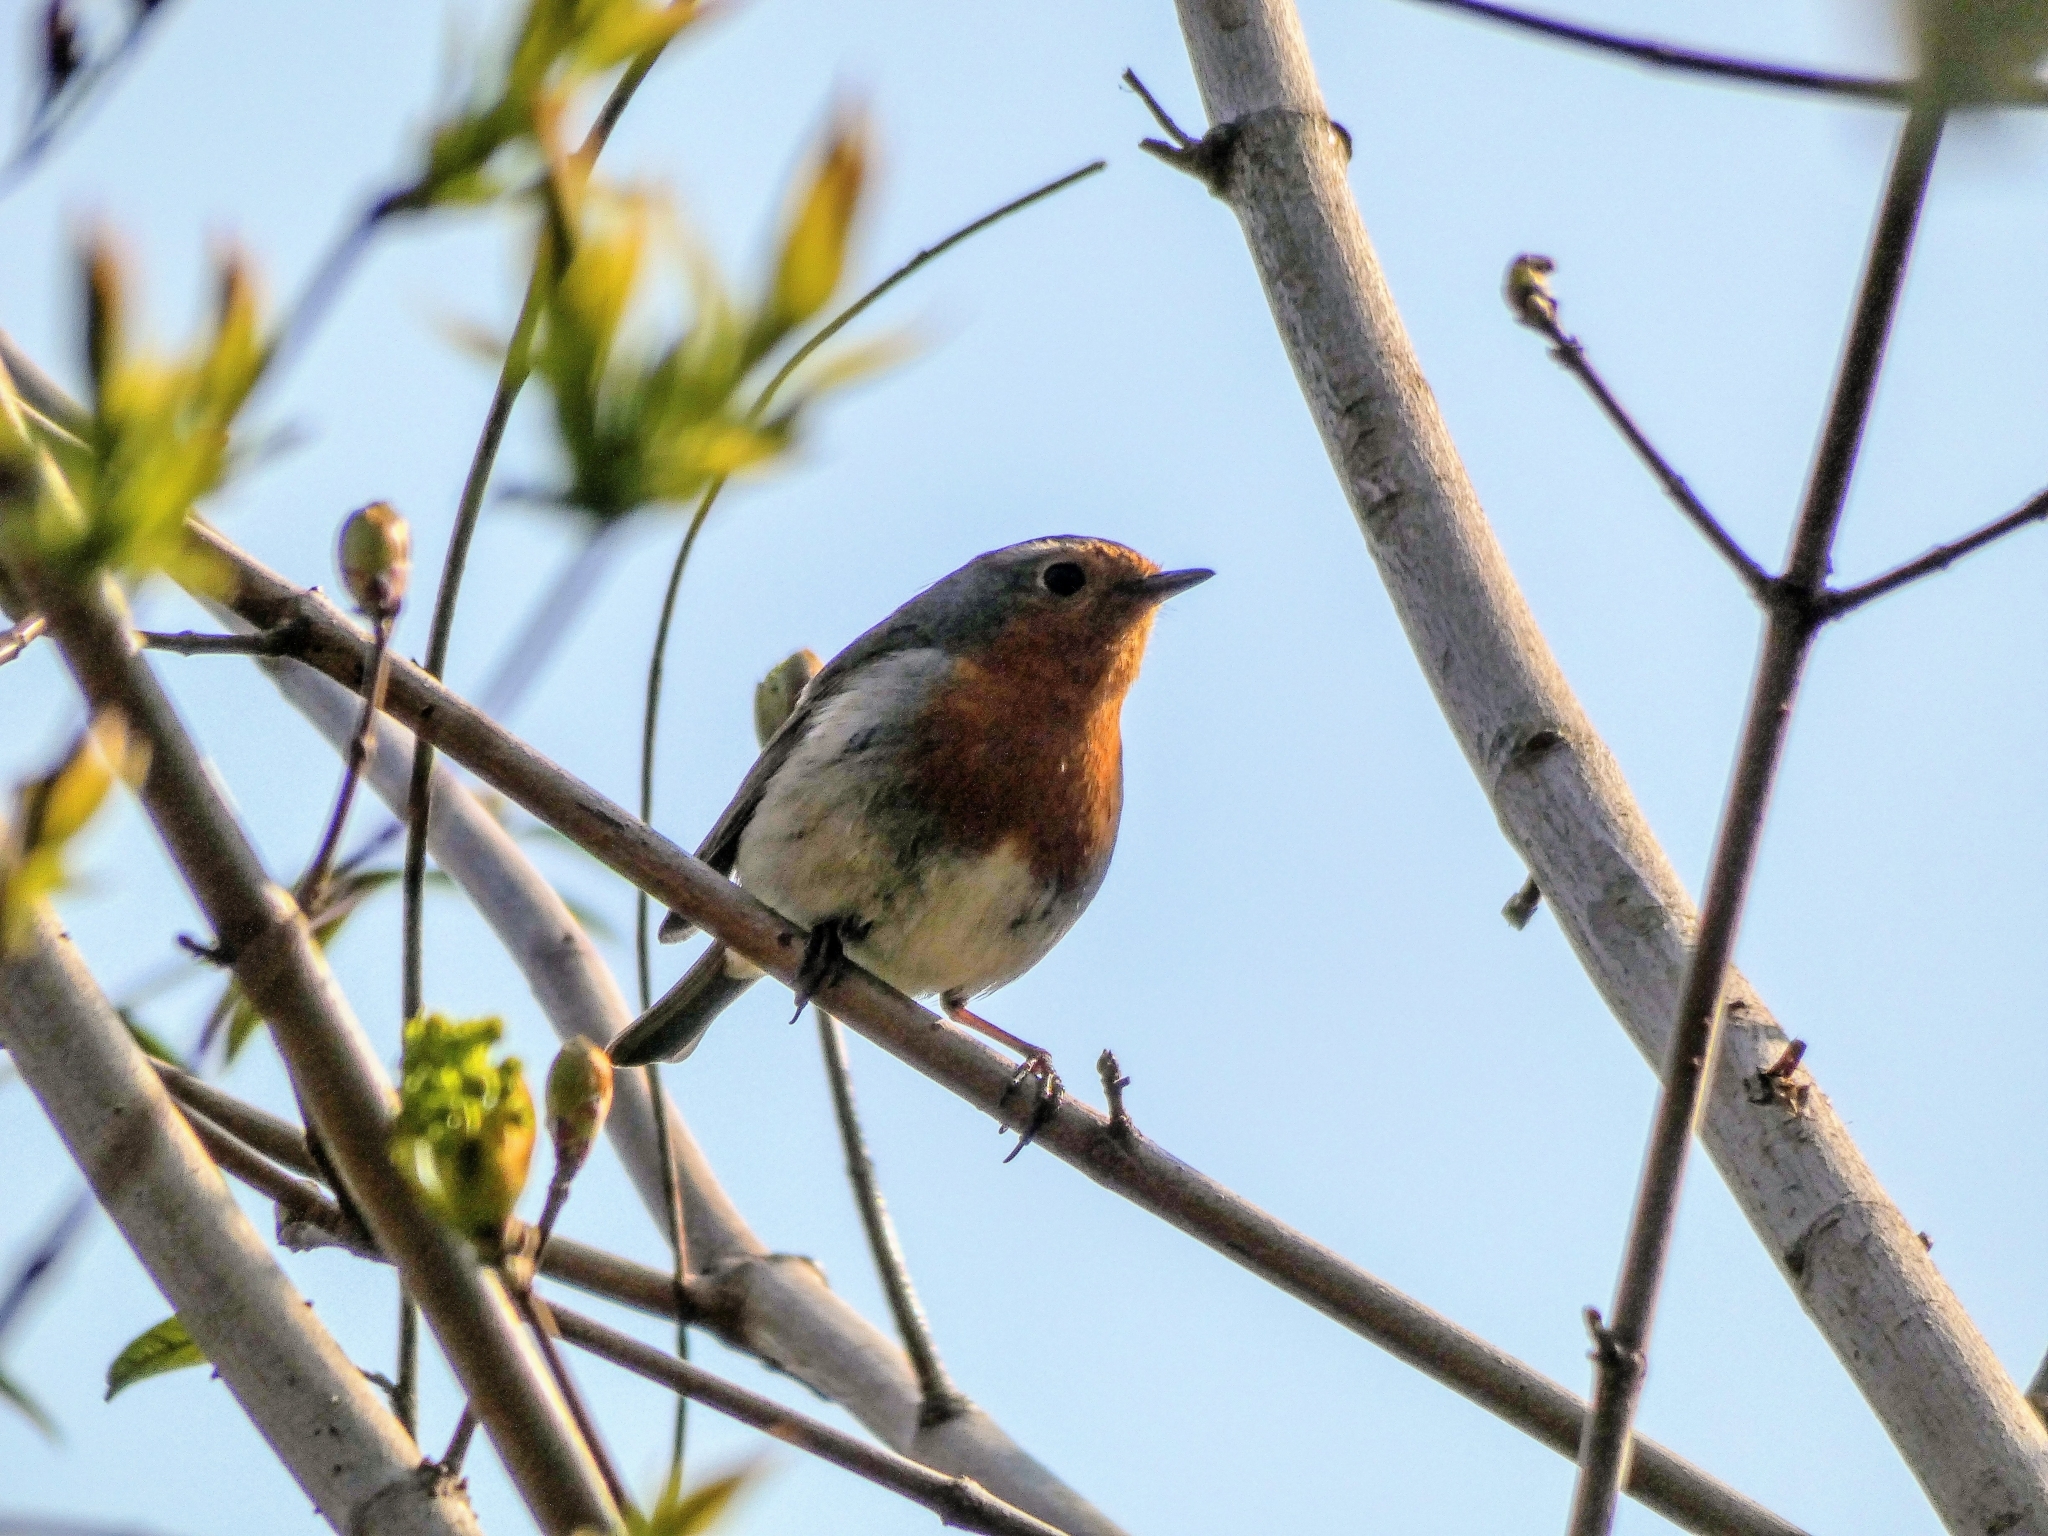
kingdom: Animalia
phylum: Chordata
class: Aves
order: Passeriformes
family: Muscicapidae
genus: Erithacus
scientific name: Erithacus rubecula
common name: European robin
